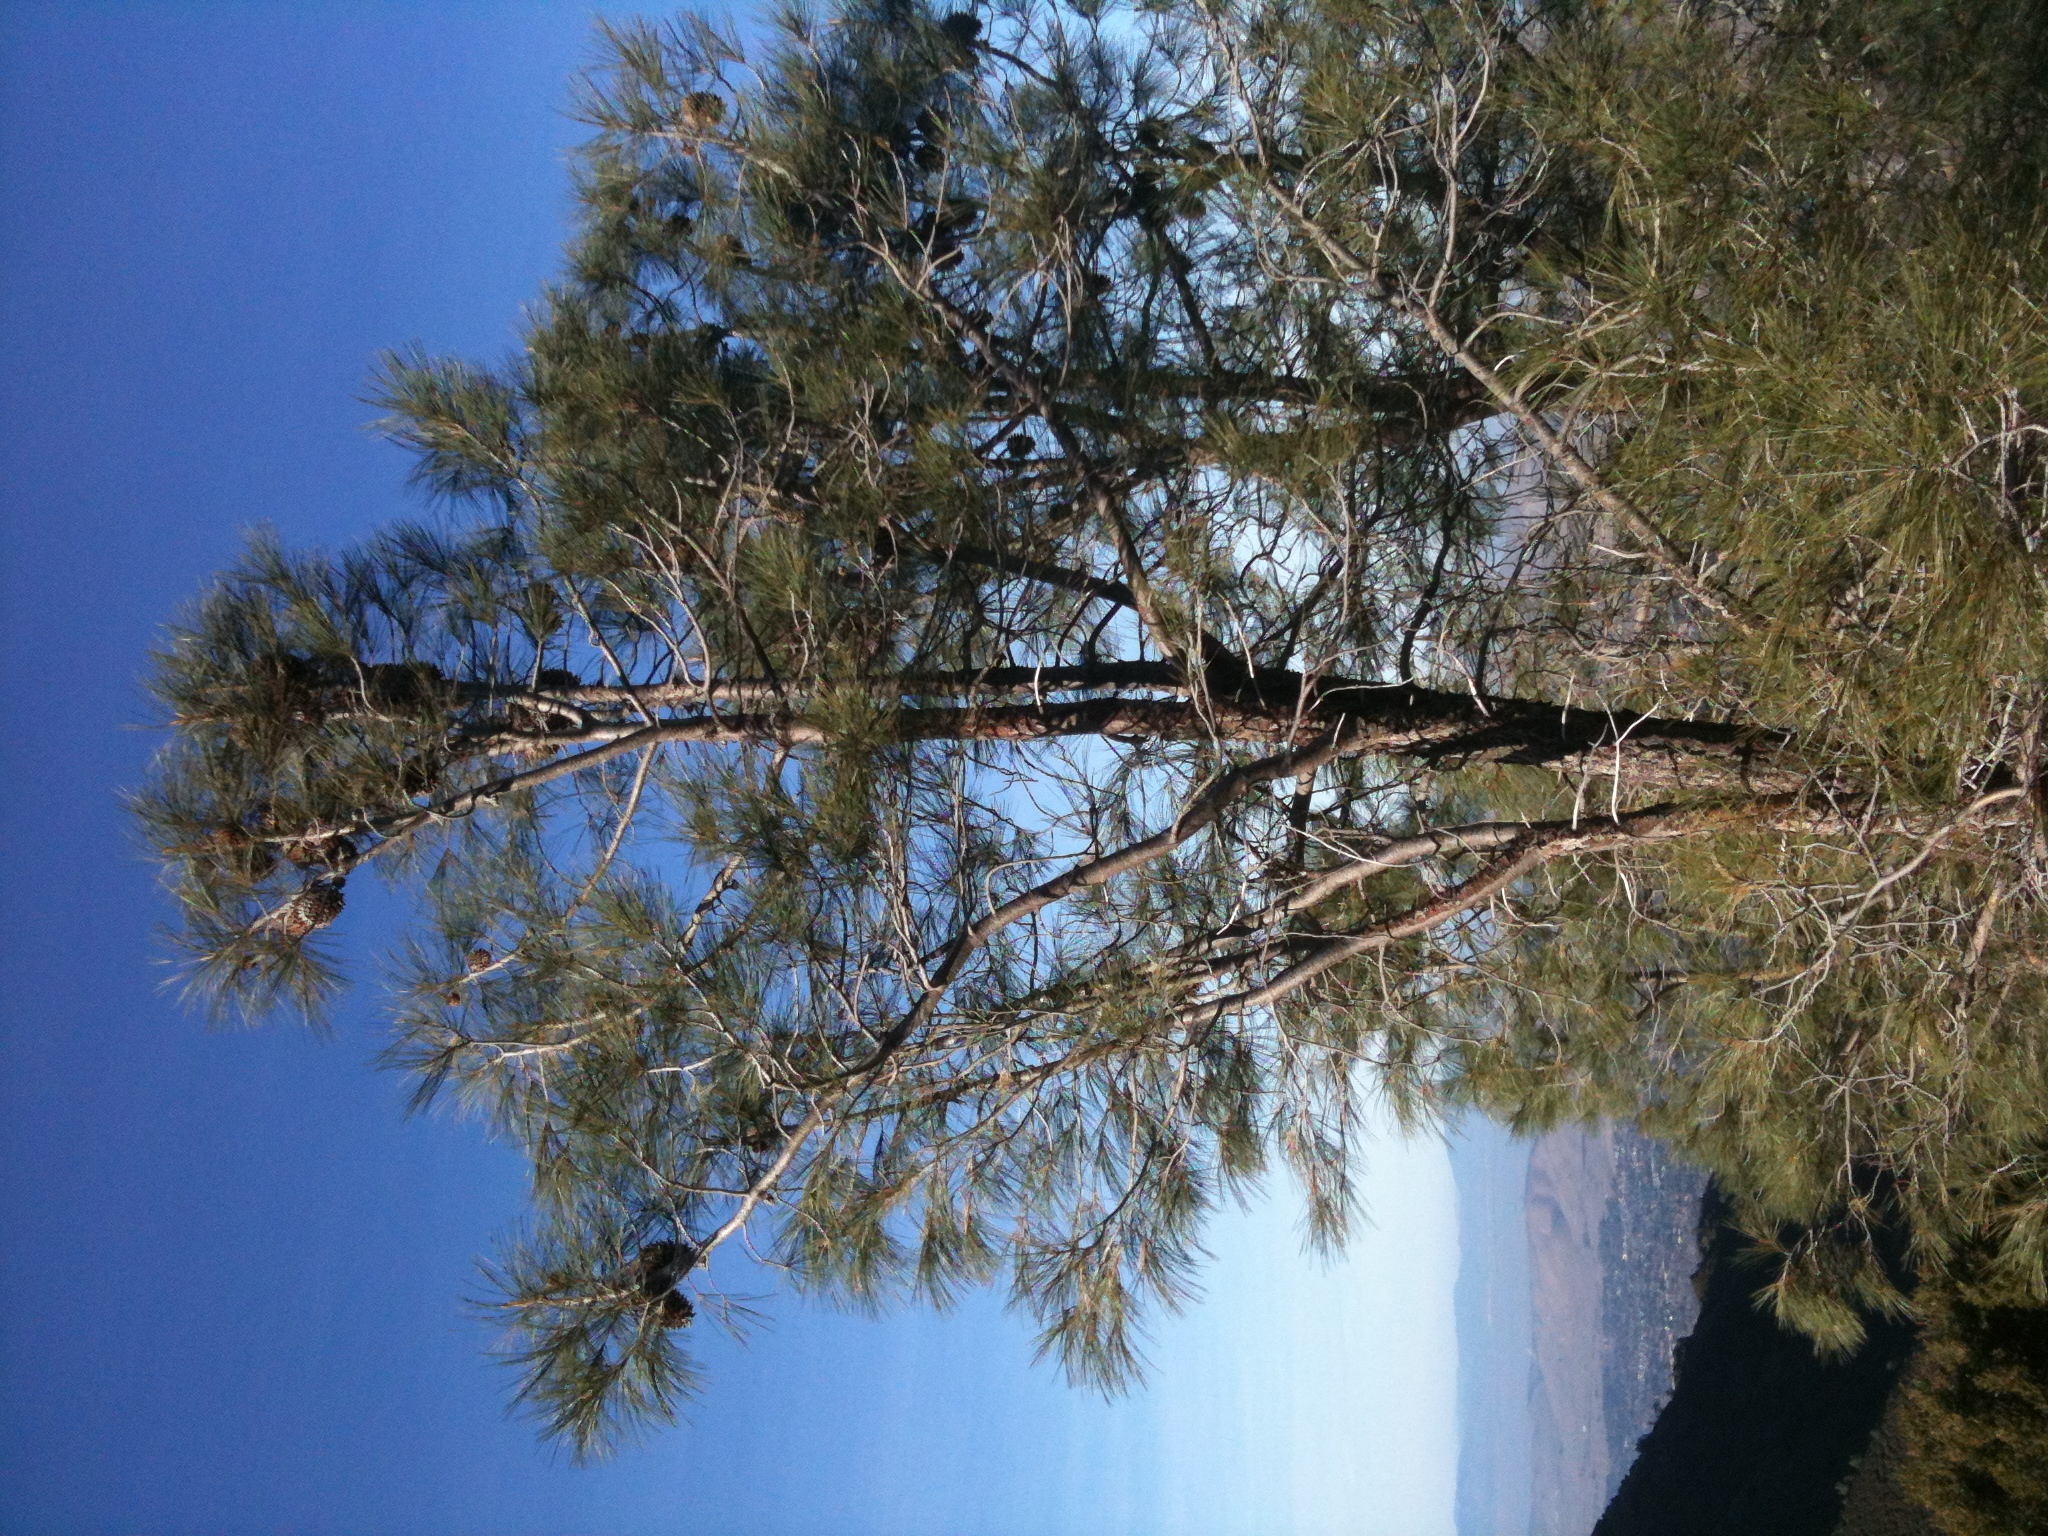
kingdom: Plantae
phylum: Tracheophyta
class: Pinopsida
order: Pinales
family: Pinaceae
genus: Pinus
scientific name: Pinus sabiniana
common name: Bull pine
